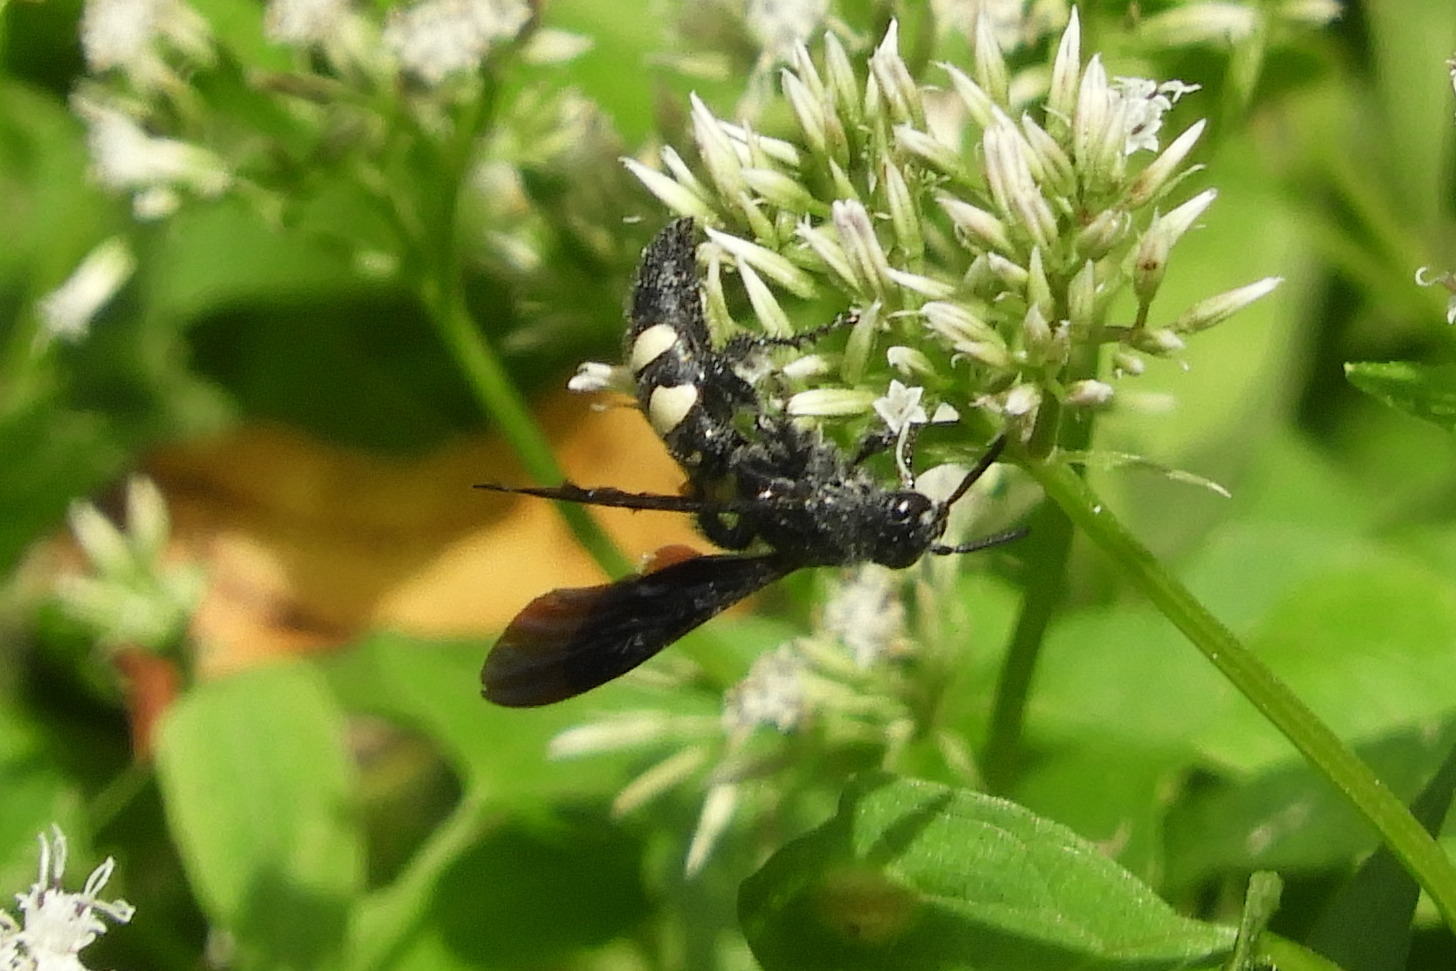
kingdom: Animalia
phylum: Arthropoda
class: Insecta
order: Hymenoptera
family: Scoliidae
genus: Scolia
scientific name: Scolia bicincta
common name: Double-banded scoliid wasp
